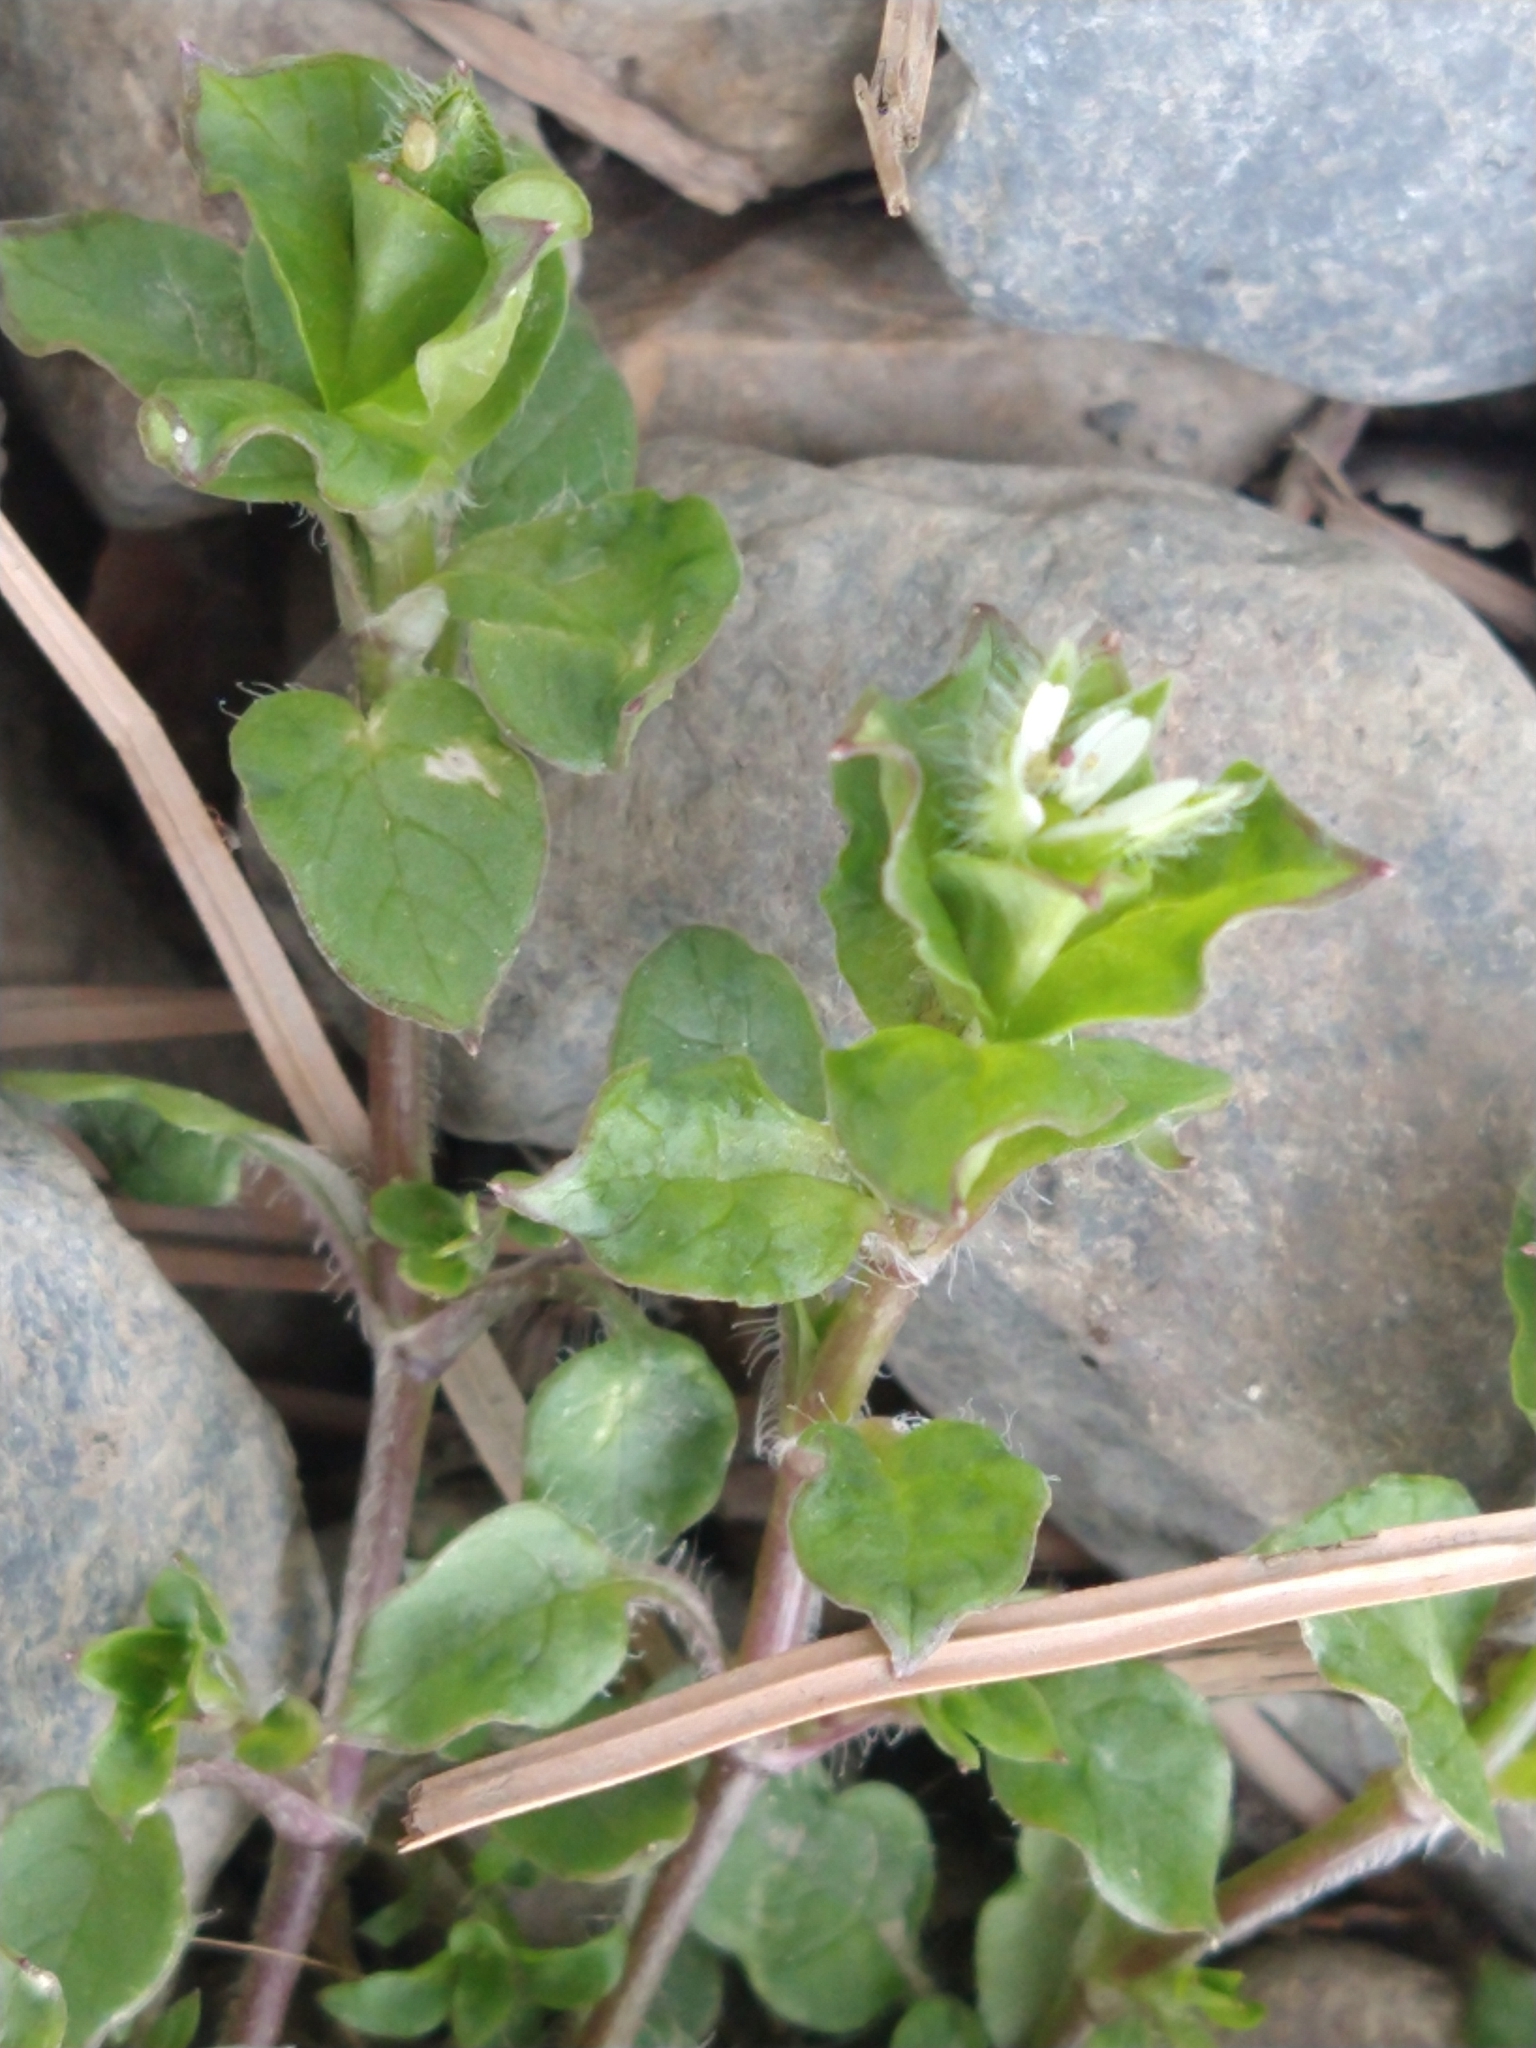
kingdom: Plantae
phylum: Tracheophyta
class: Magnoliopsida
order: Caryophyllales
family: Caryophyllaceae
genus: Stellaria
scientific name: Stellaria media
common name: Common chickweed
